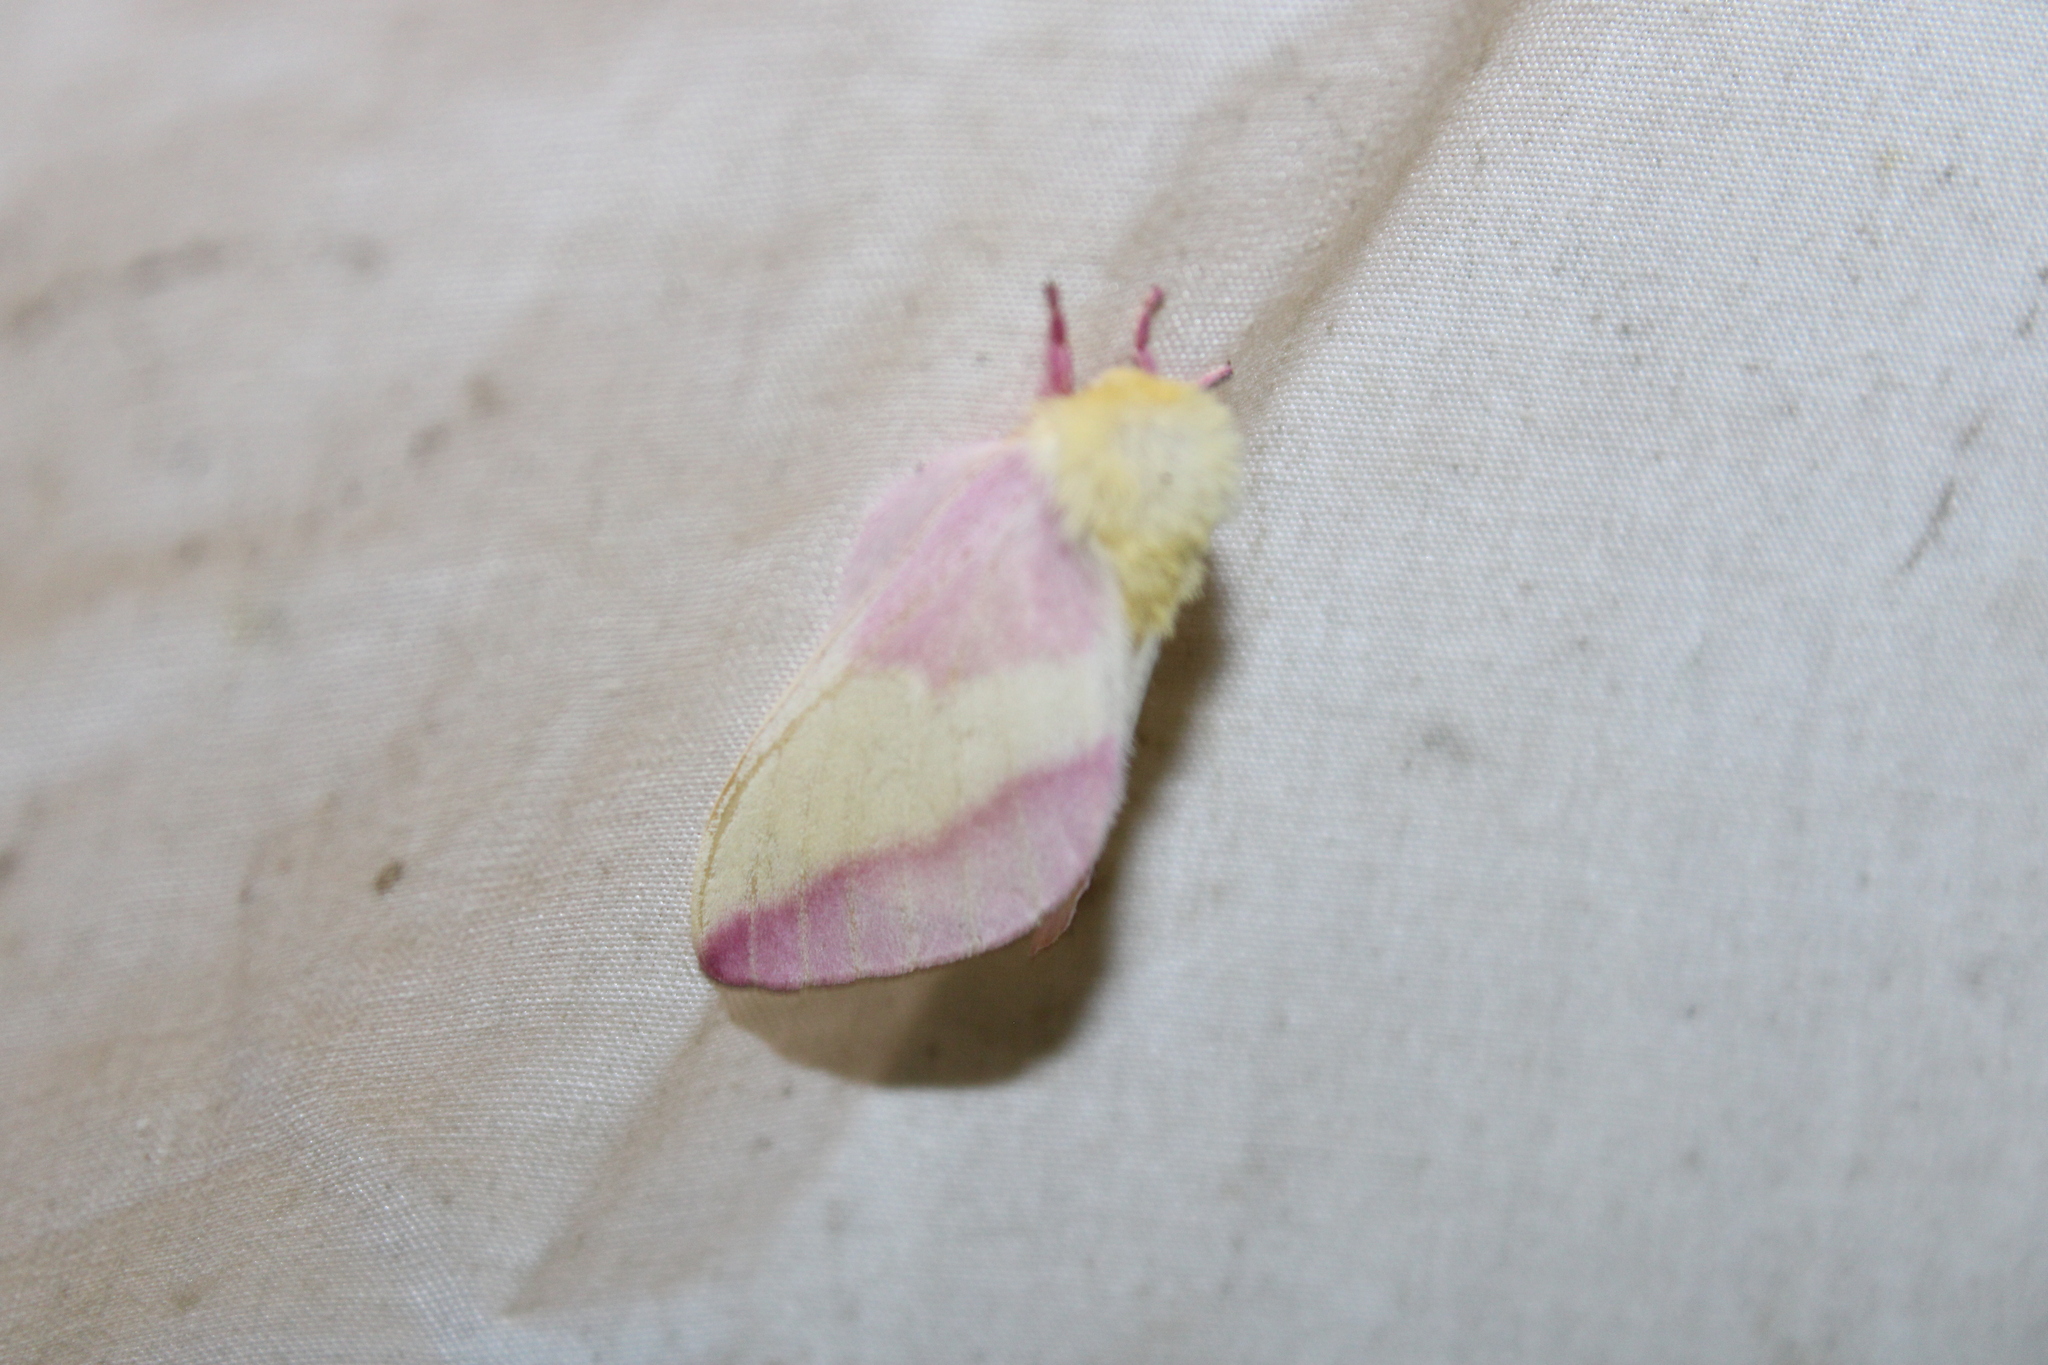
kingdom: Animalia
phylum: Arthropoda
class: Insecta
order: Lepidoptera
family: Saturniidae
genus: Dryocampa
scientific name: Dryocampa rubicunda
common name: Rosy maple moth
